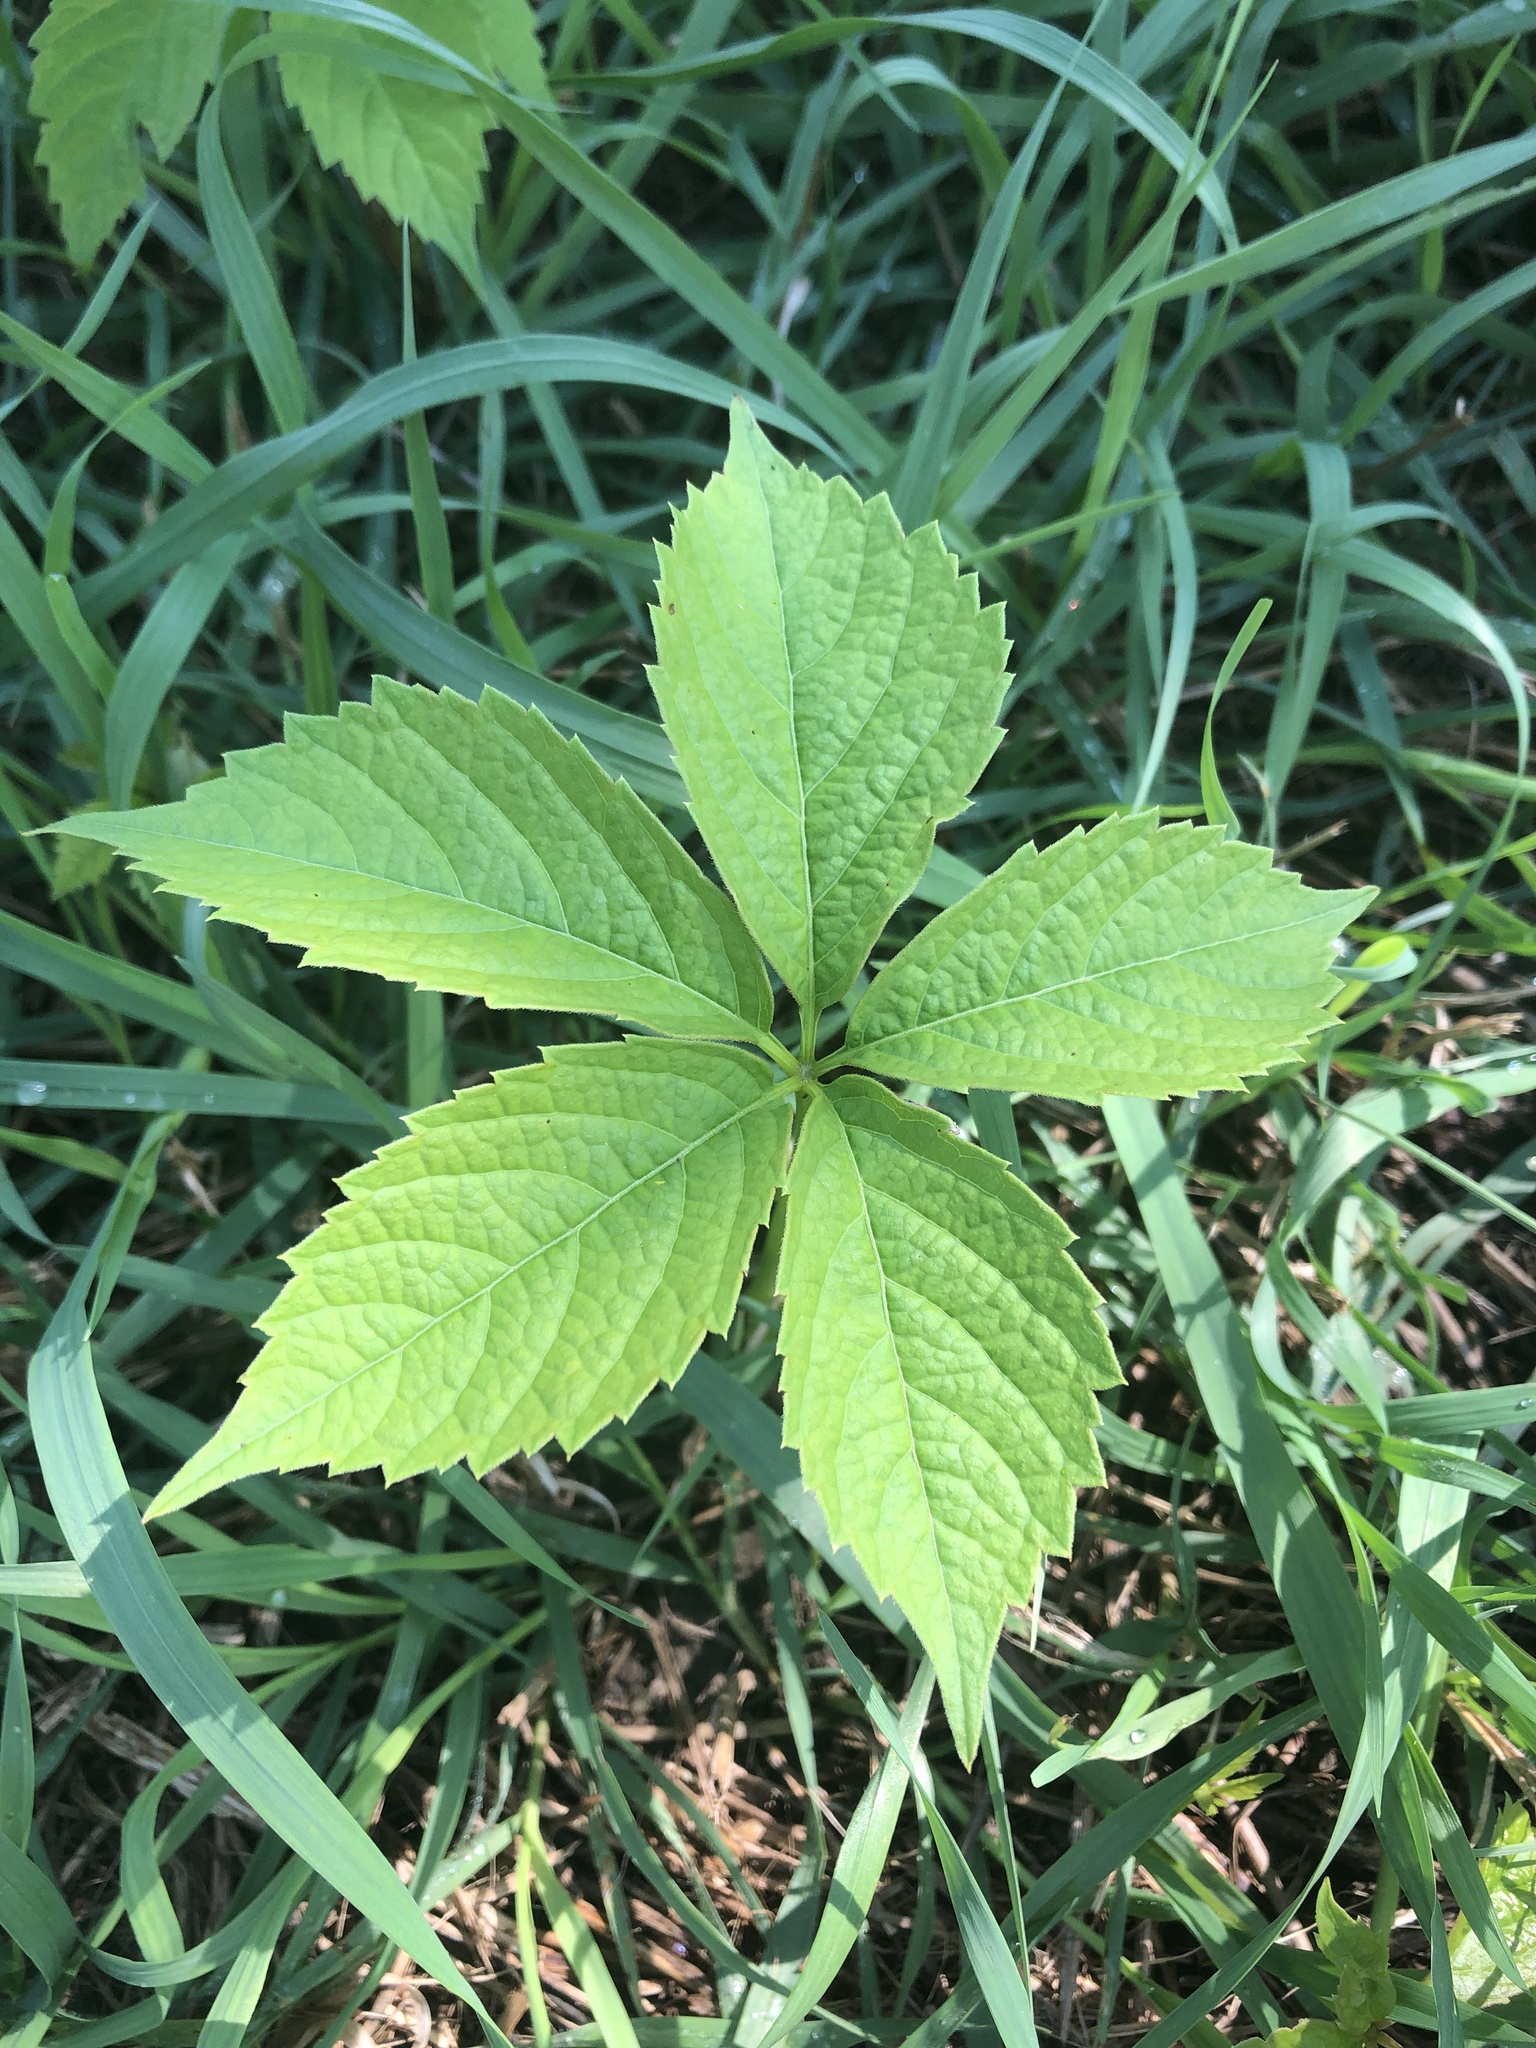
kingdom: Plantae
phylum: Tracheophyta
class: Magnoliopsida
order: Vitales
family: Vitaceae
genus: Parthenocissus
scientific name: Parthenocissus quinquefolia
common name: Virginia-creeper
